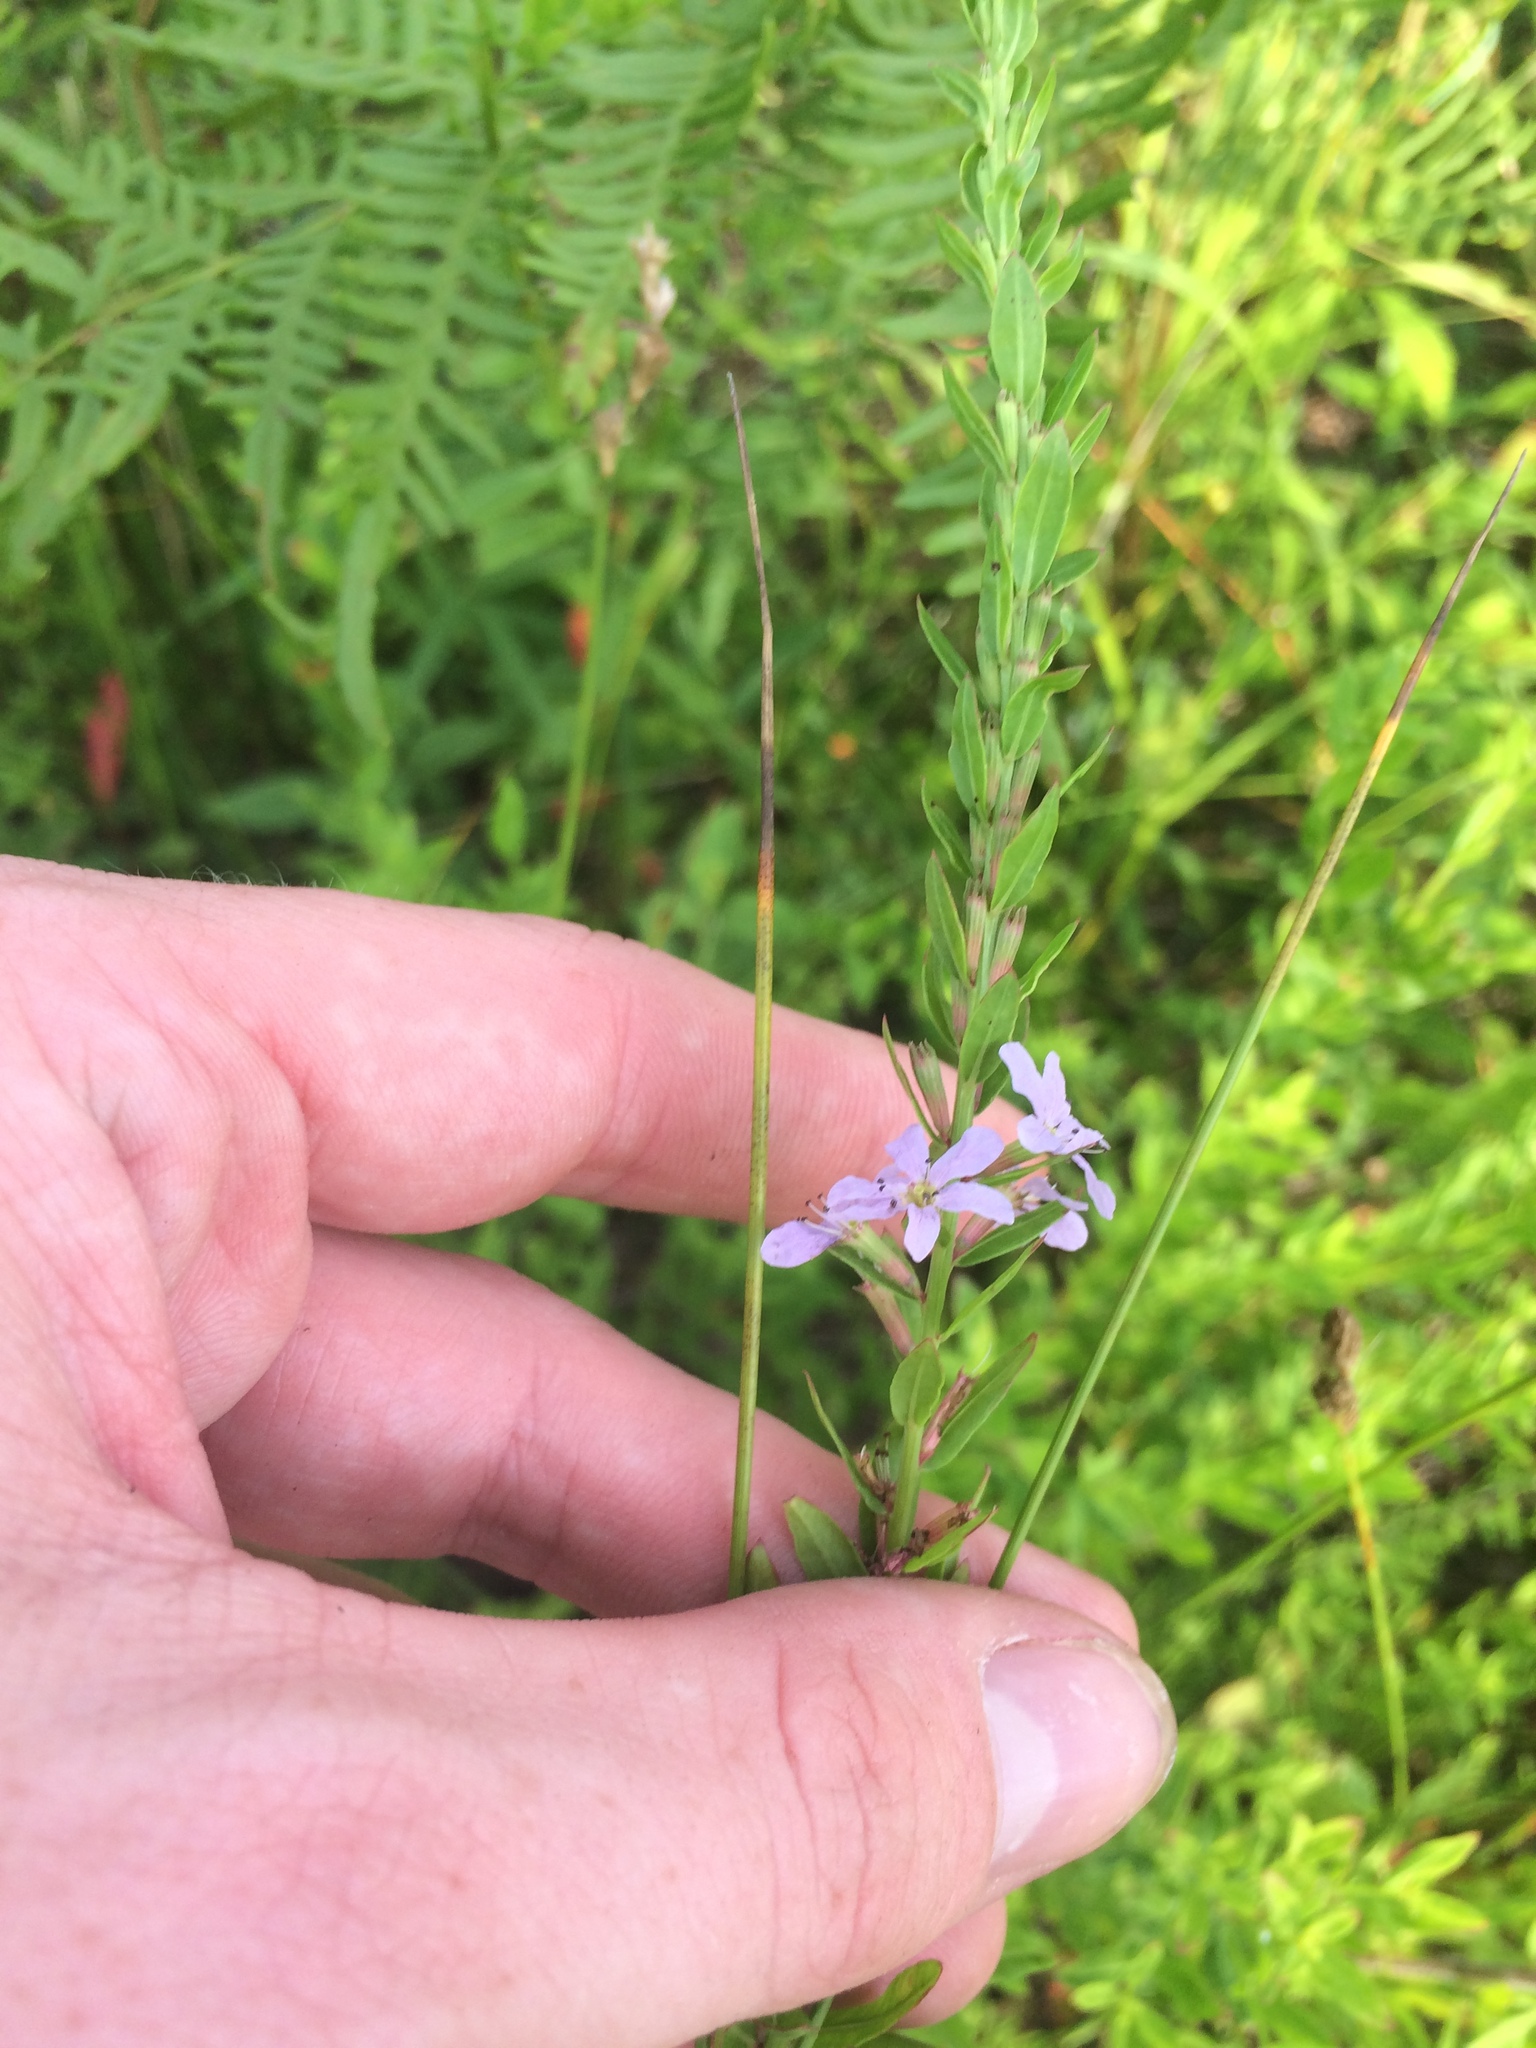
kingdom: Plantae
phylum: Tracheophyta
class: Magnoliopsida
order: Myrtales
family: Lythraceae
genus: Lythrum
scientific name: Lythrum alatum
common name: Winged loosestrife
